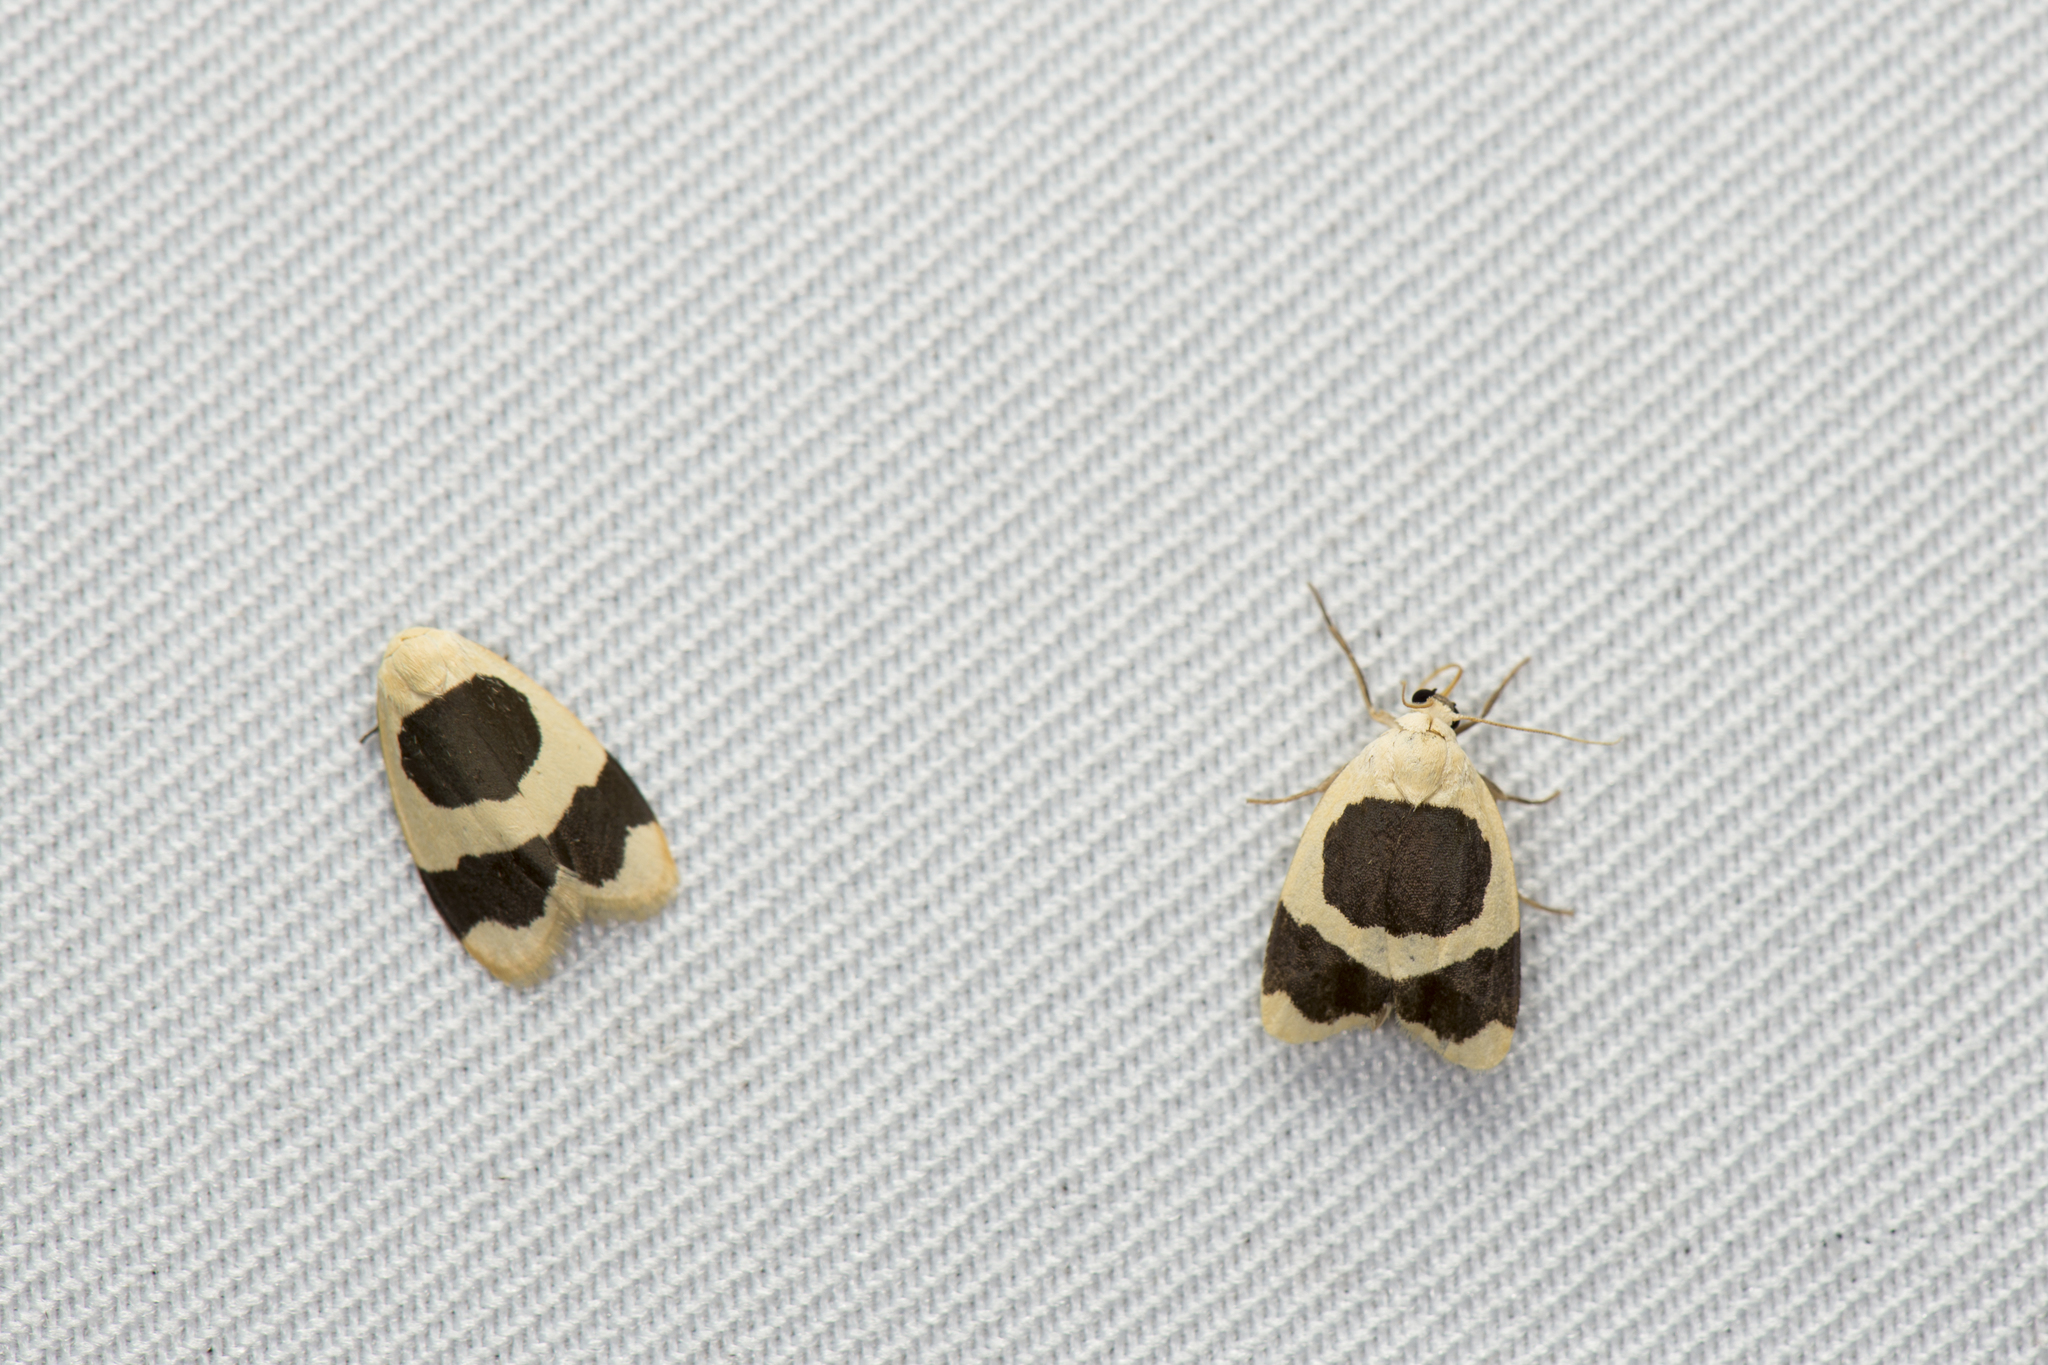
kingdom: Animalia
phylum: Arthropoda
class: Insecta
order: Lepidoptera
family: Erebidae
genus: Garudinia
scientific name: Garudinia taioana
